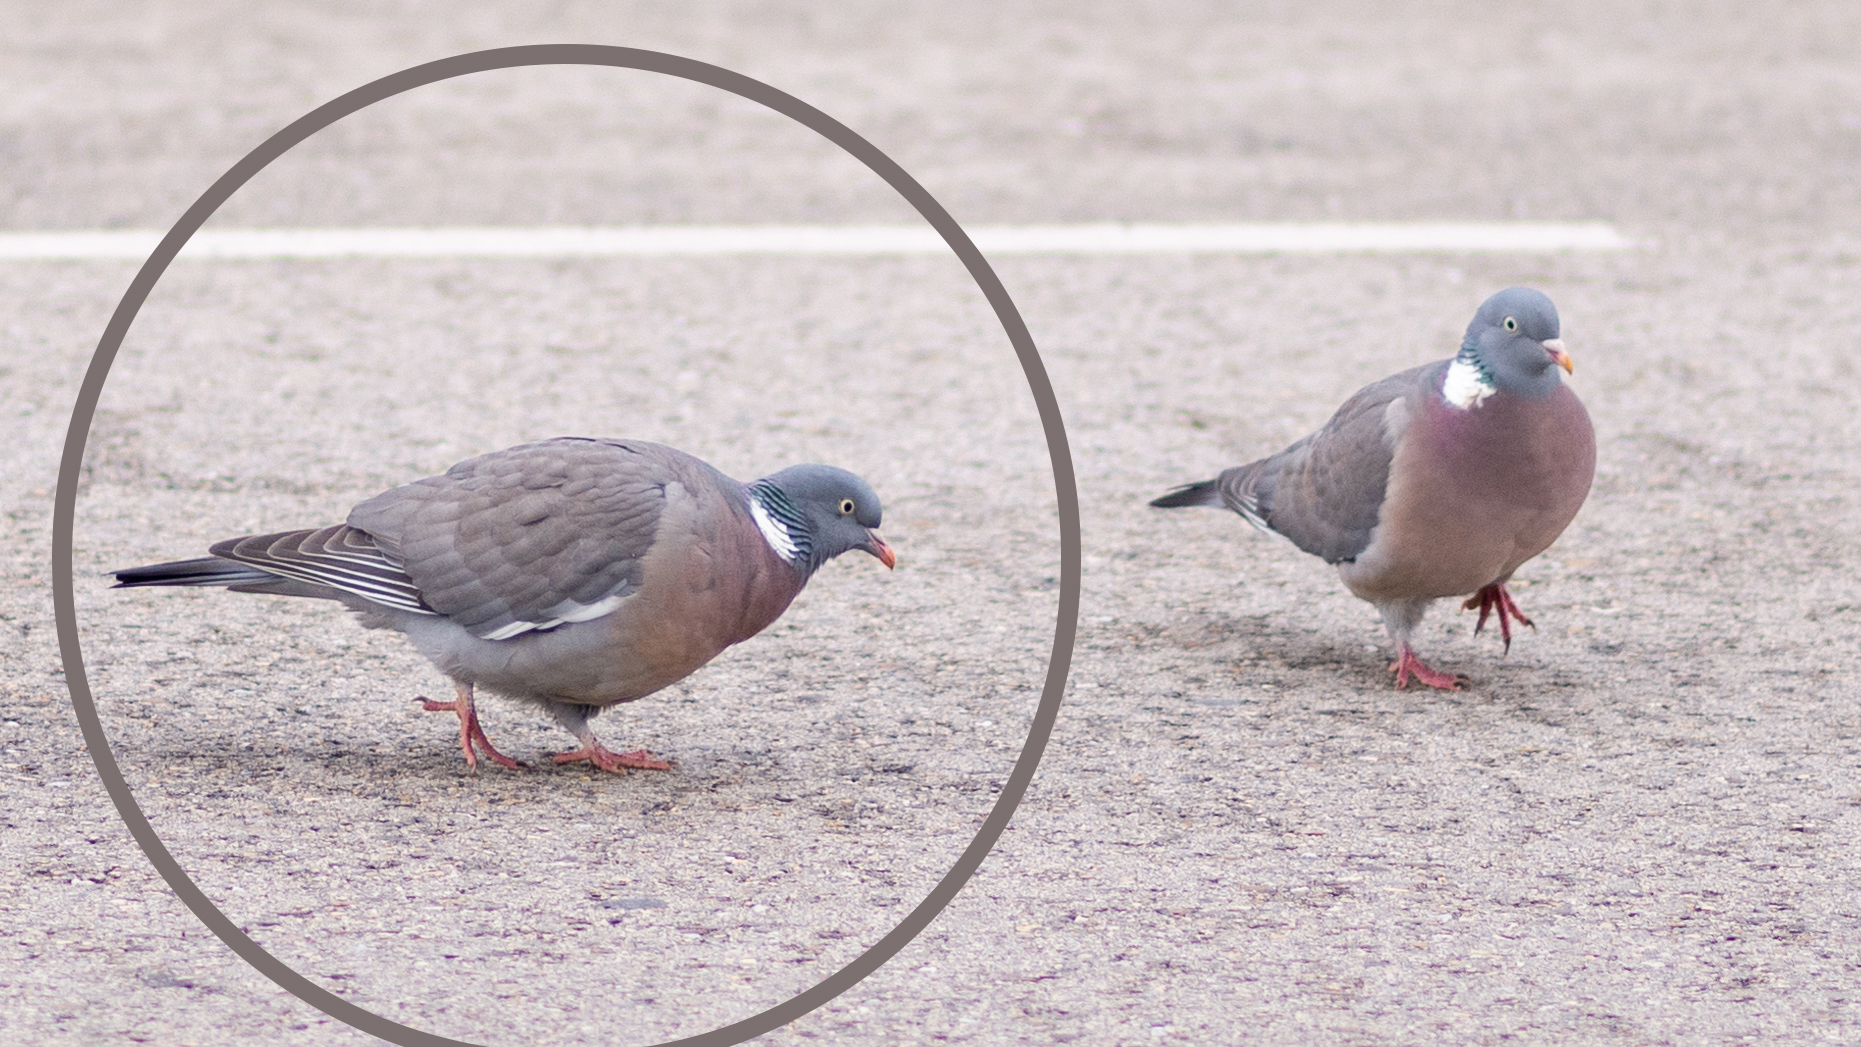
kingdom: Animalia
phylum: Chordata
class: Aves
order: Columbiformes
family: Columbidae
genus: Columba
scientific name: Columba palumbus
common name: Common wood pigeon
